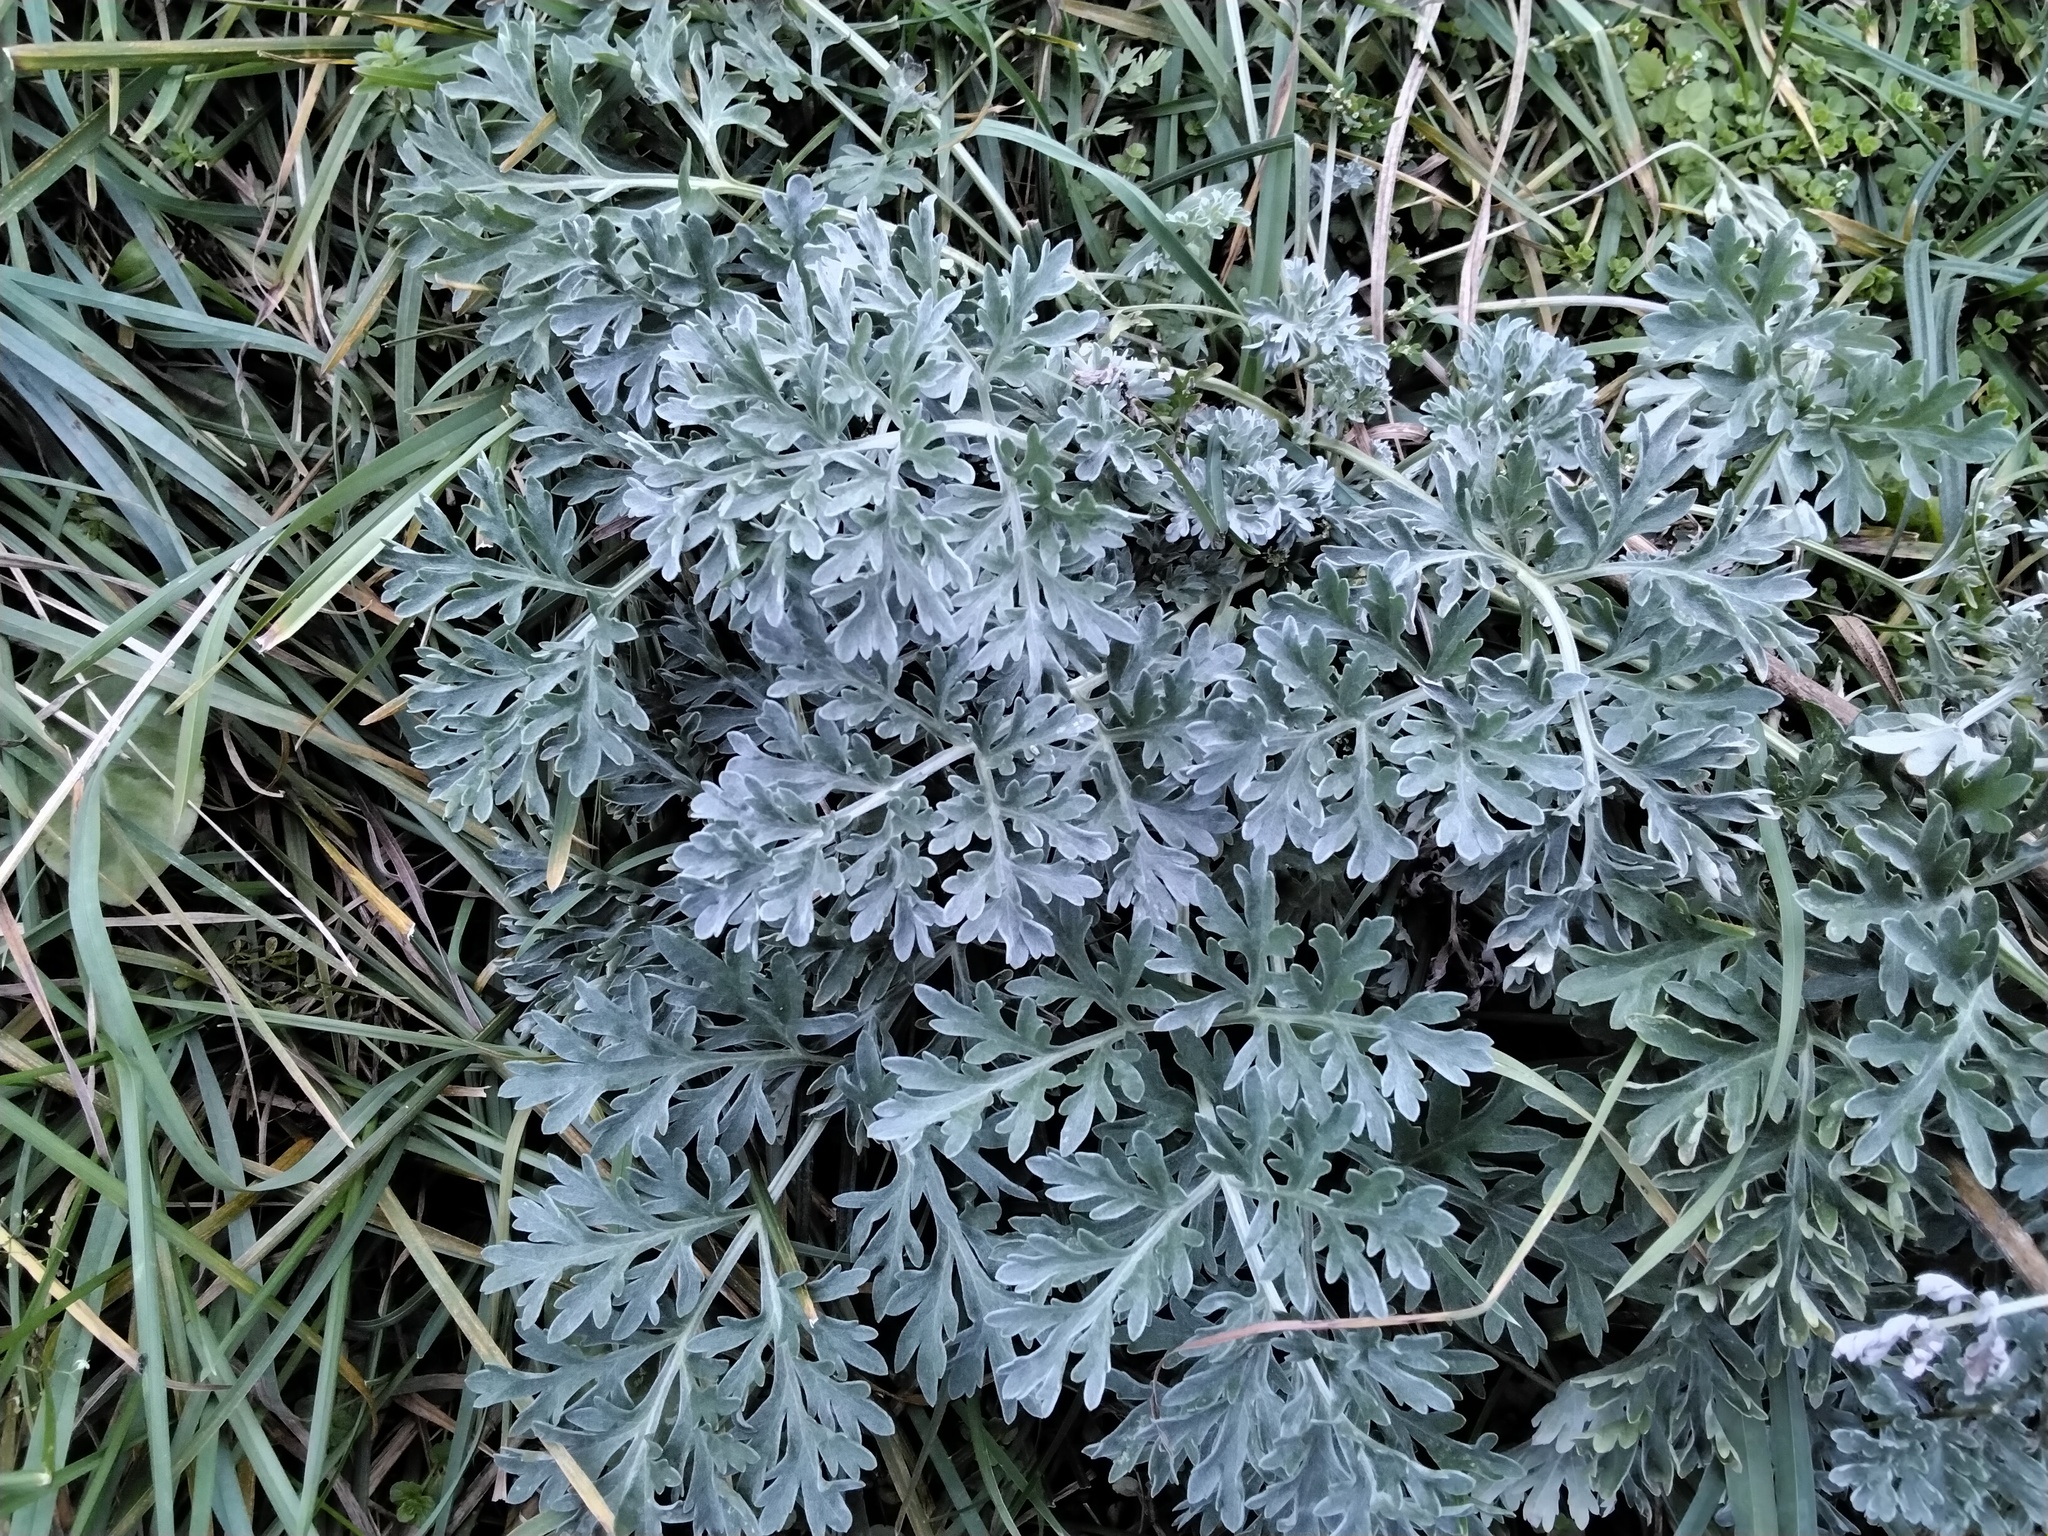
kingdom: Plantae
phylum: Tracheophyta
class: Magnoliopsida
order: Asterales
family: Asteraceae
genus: Artemisia
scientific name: Artemisia absinthium
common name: Wormwood
